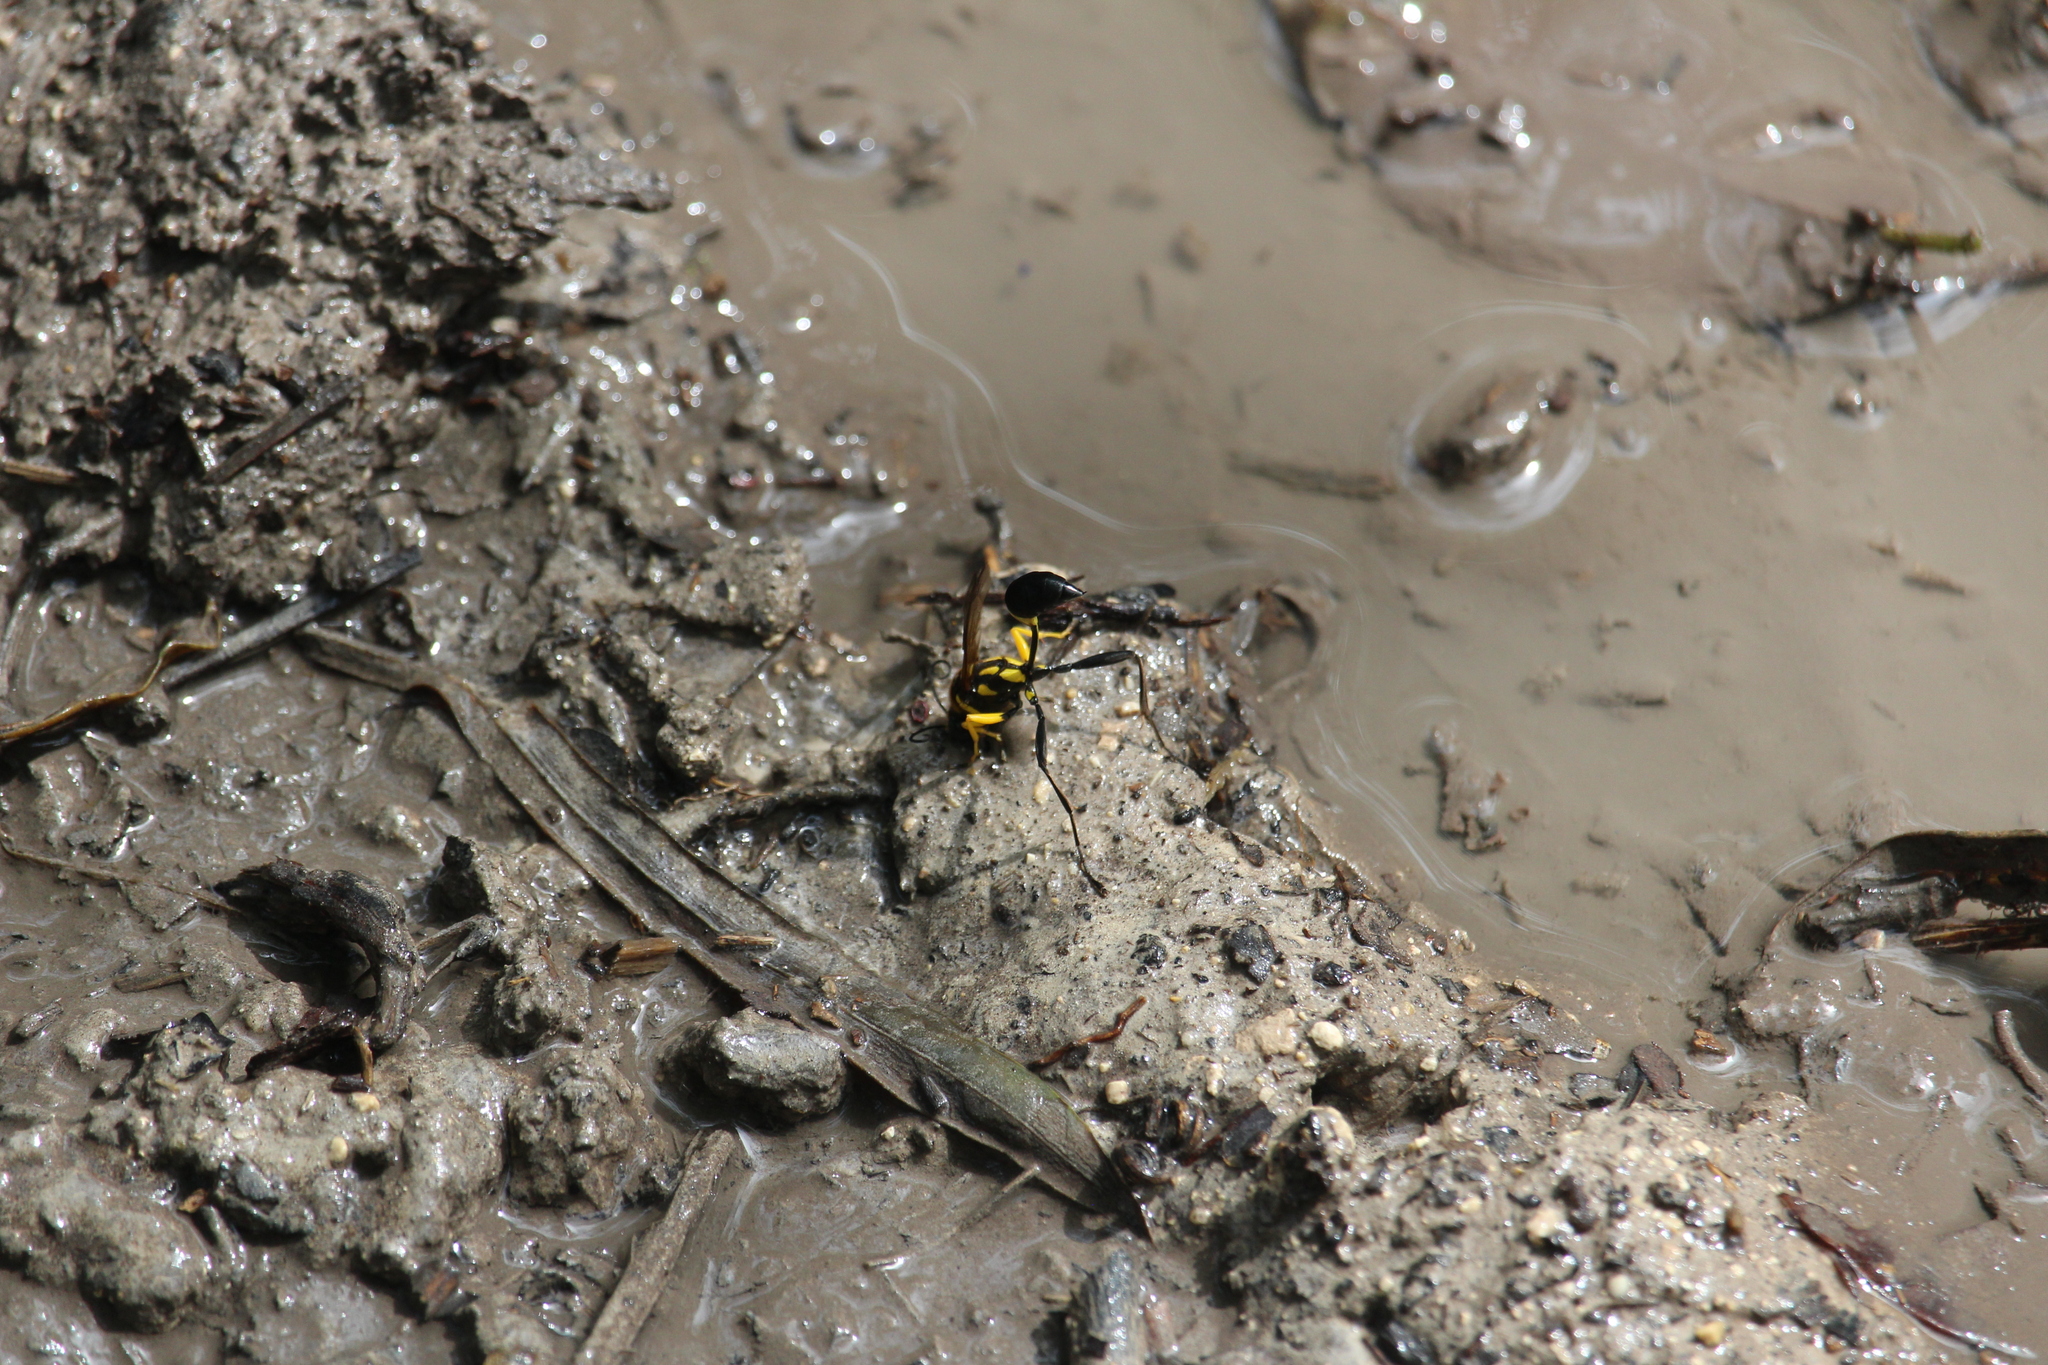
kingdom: Animalia
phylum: Arthropoda
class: Insecta
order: Hymenoptera
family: Sphecidae
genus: Sceliphron
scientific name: Sceliphron fistularium
